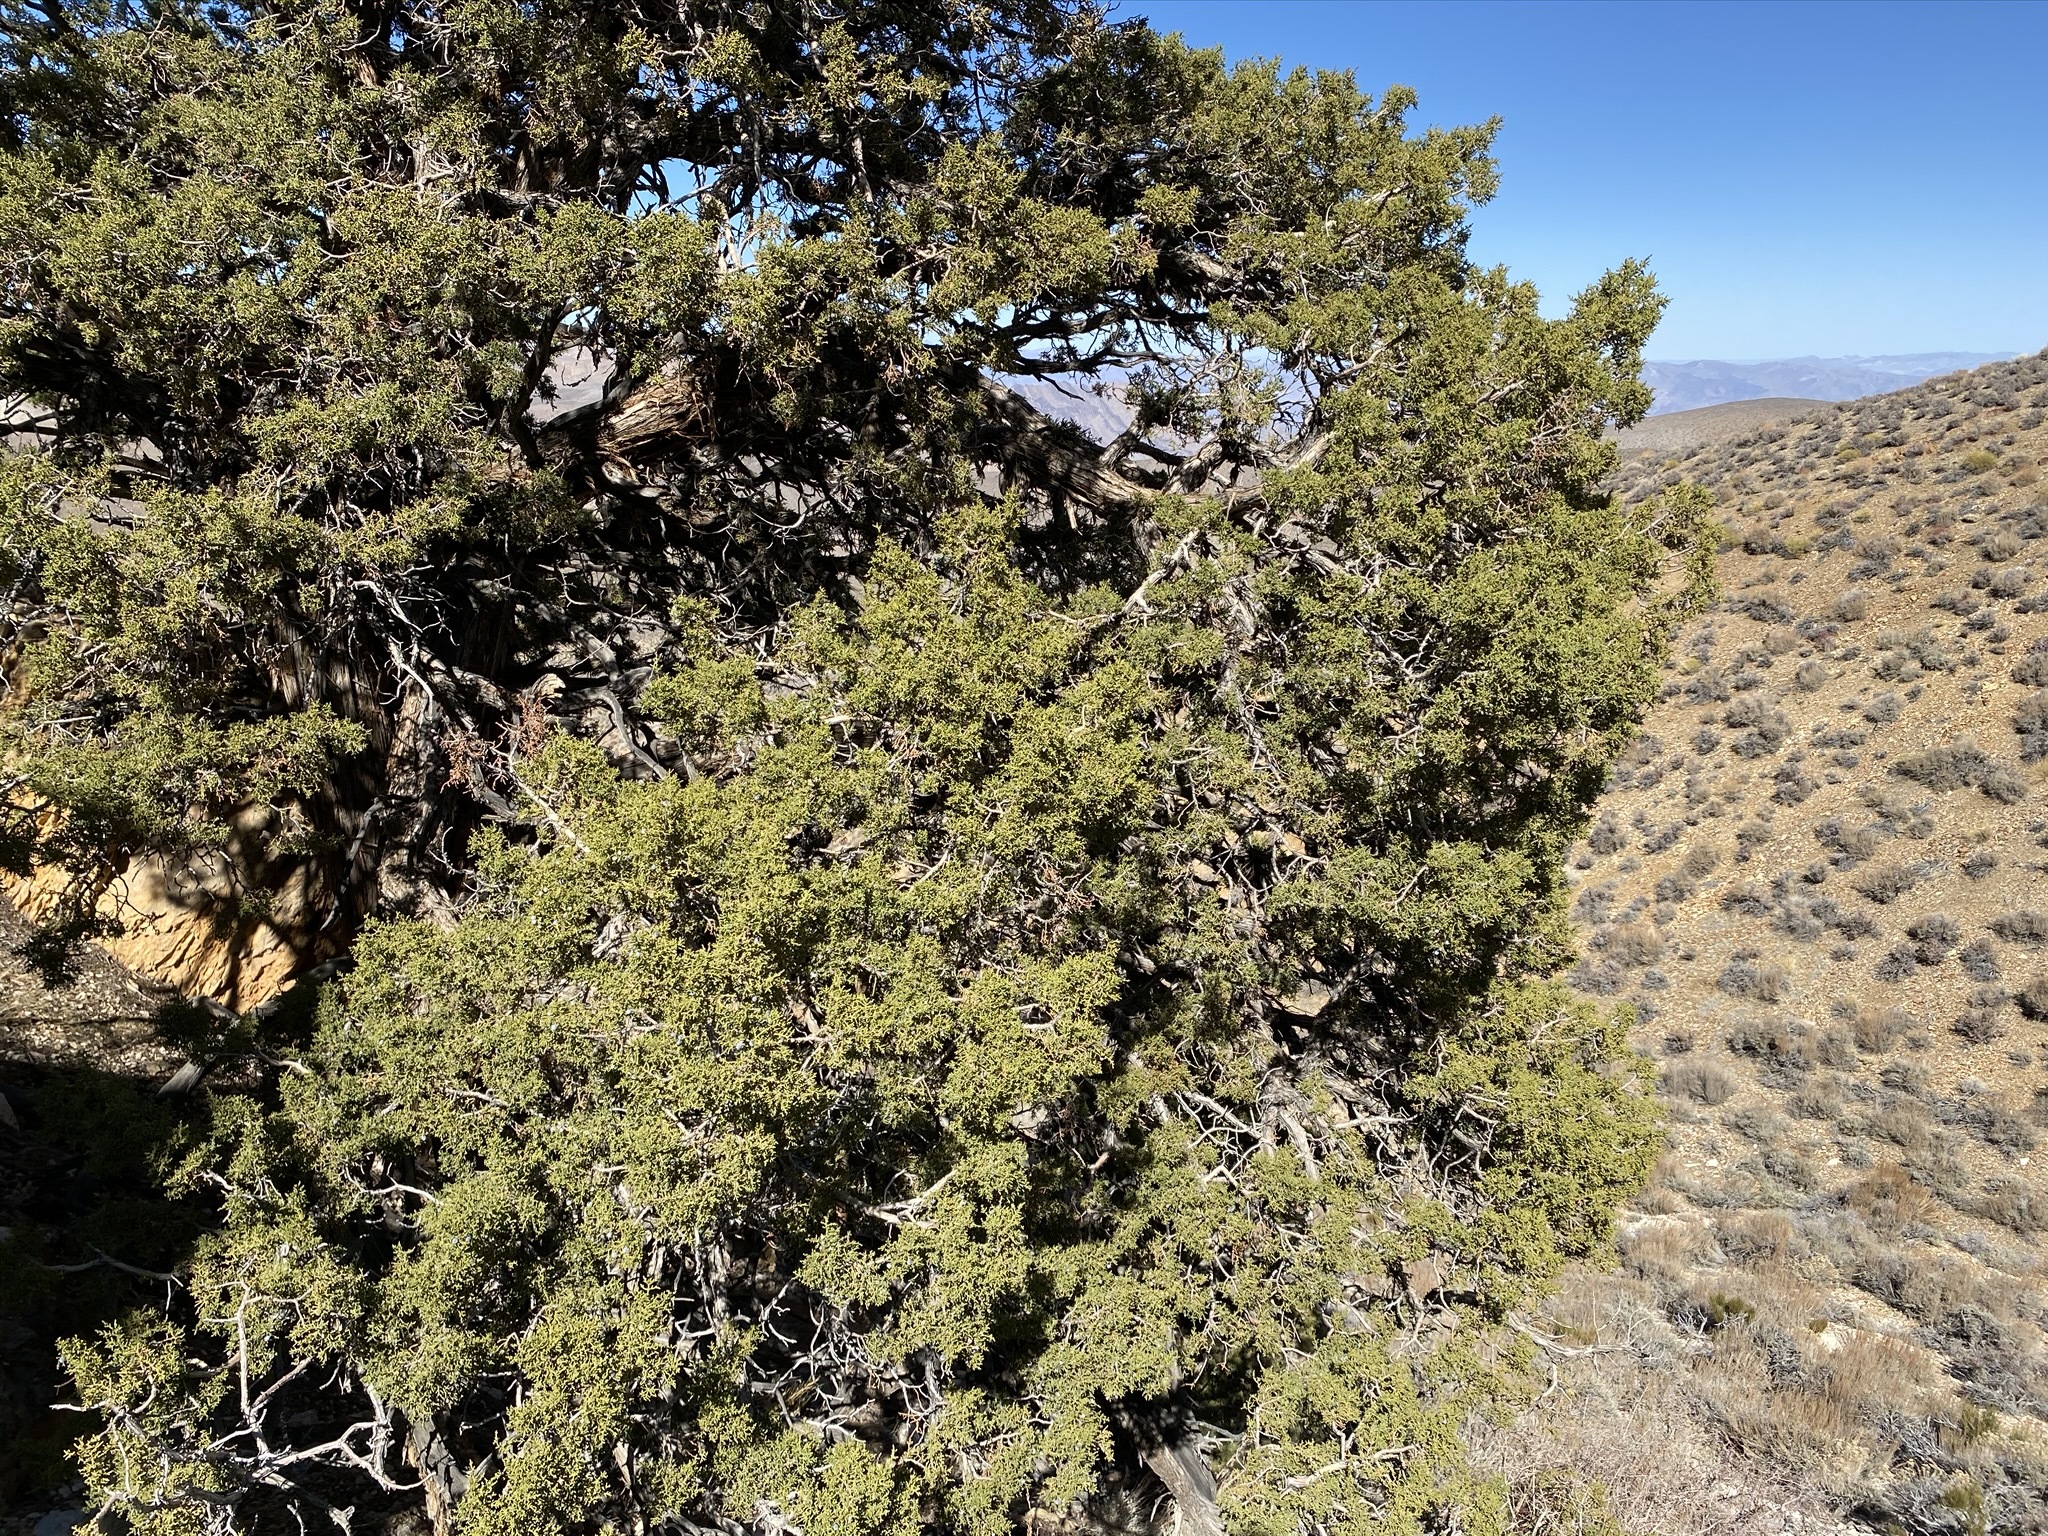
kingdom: Plantae
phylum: Tracheophyta
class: Pinopsida
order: Pinales
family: Cupressaceae
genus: Juniperus
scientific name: Juniperus osteosperma
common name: Utah juniper
